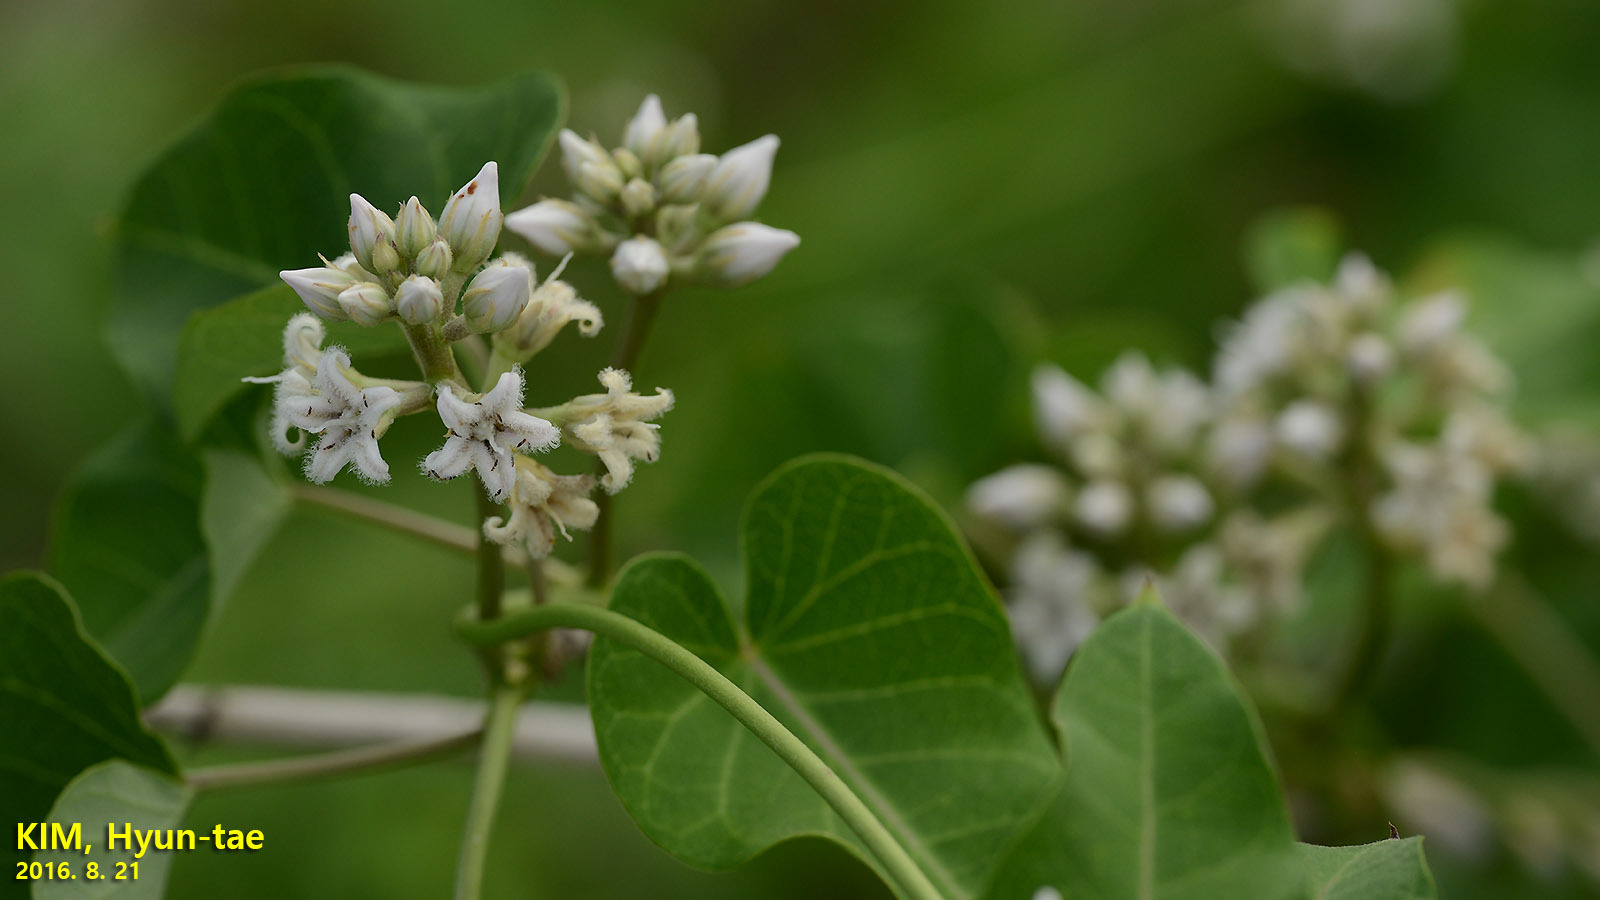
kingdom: Plantae
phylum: Tracheophyta
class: Magnoliopsida
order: Gentianales
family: Apocynaceae
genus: Cynanchum
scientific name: Cynanchum rostellatum
